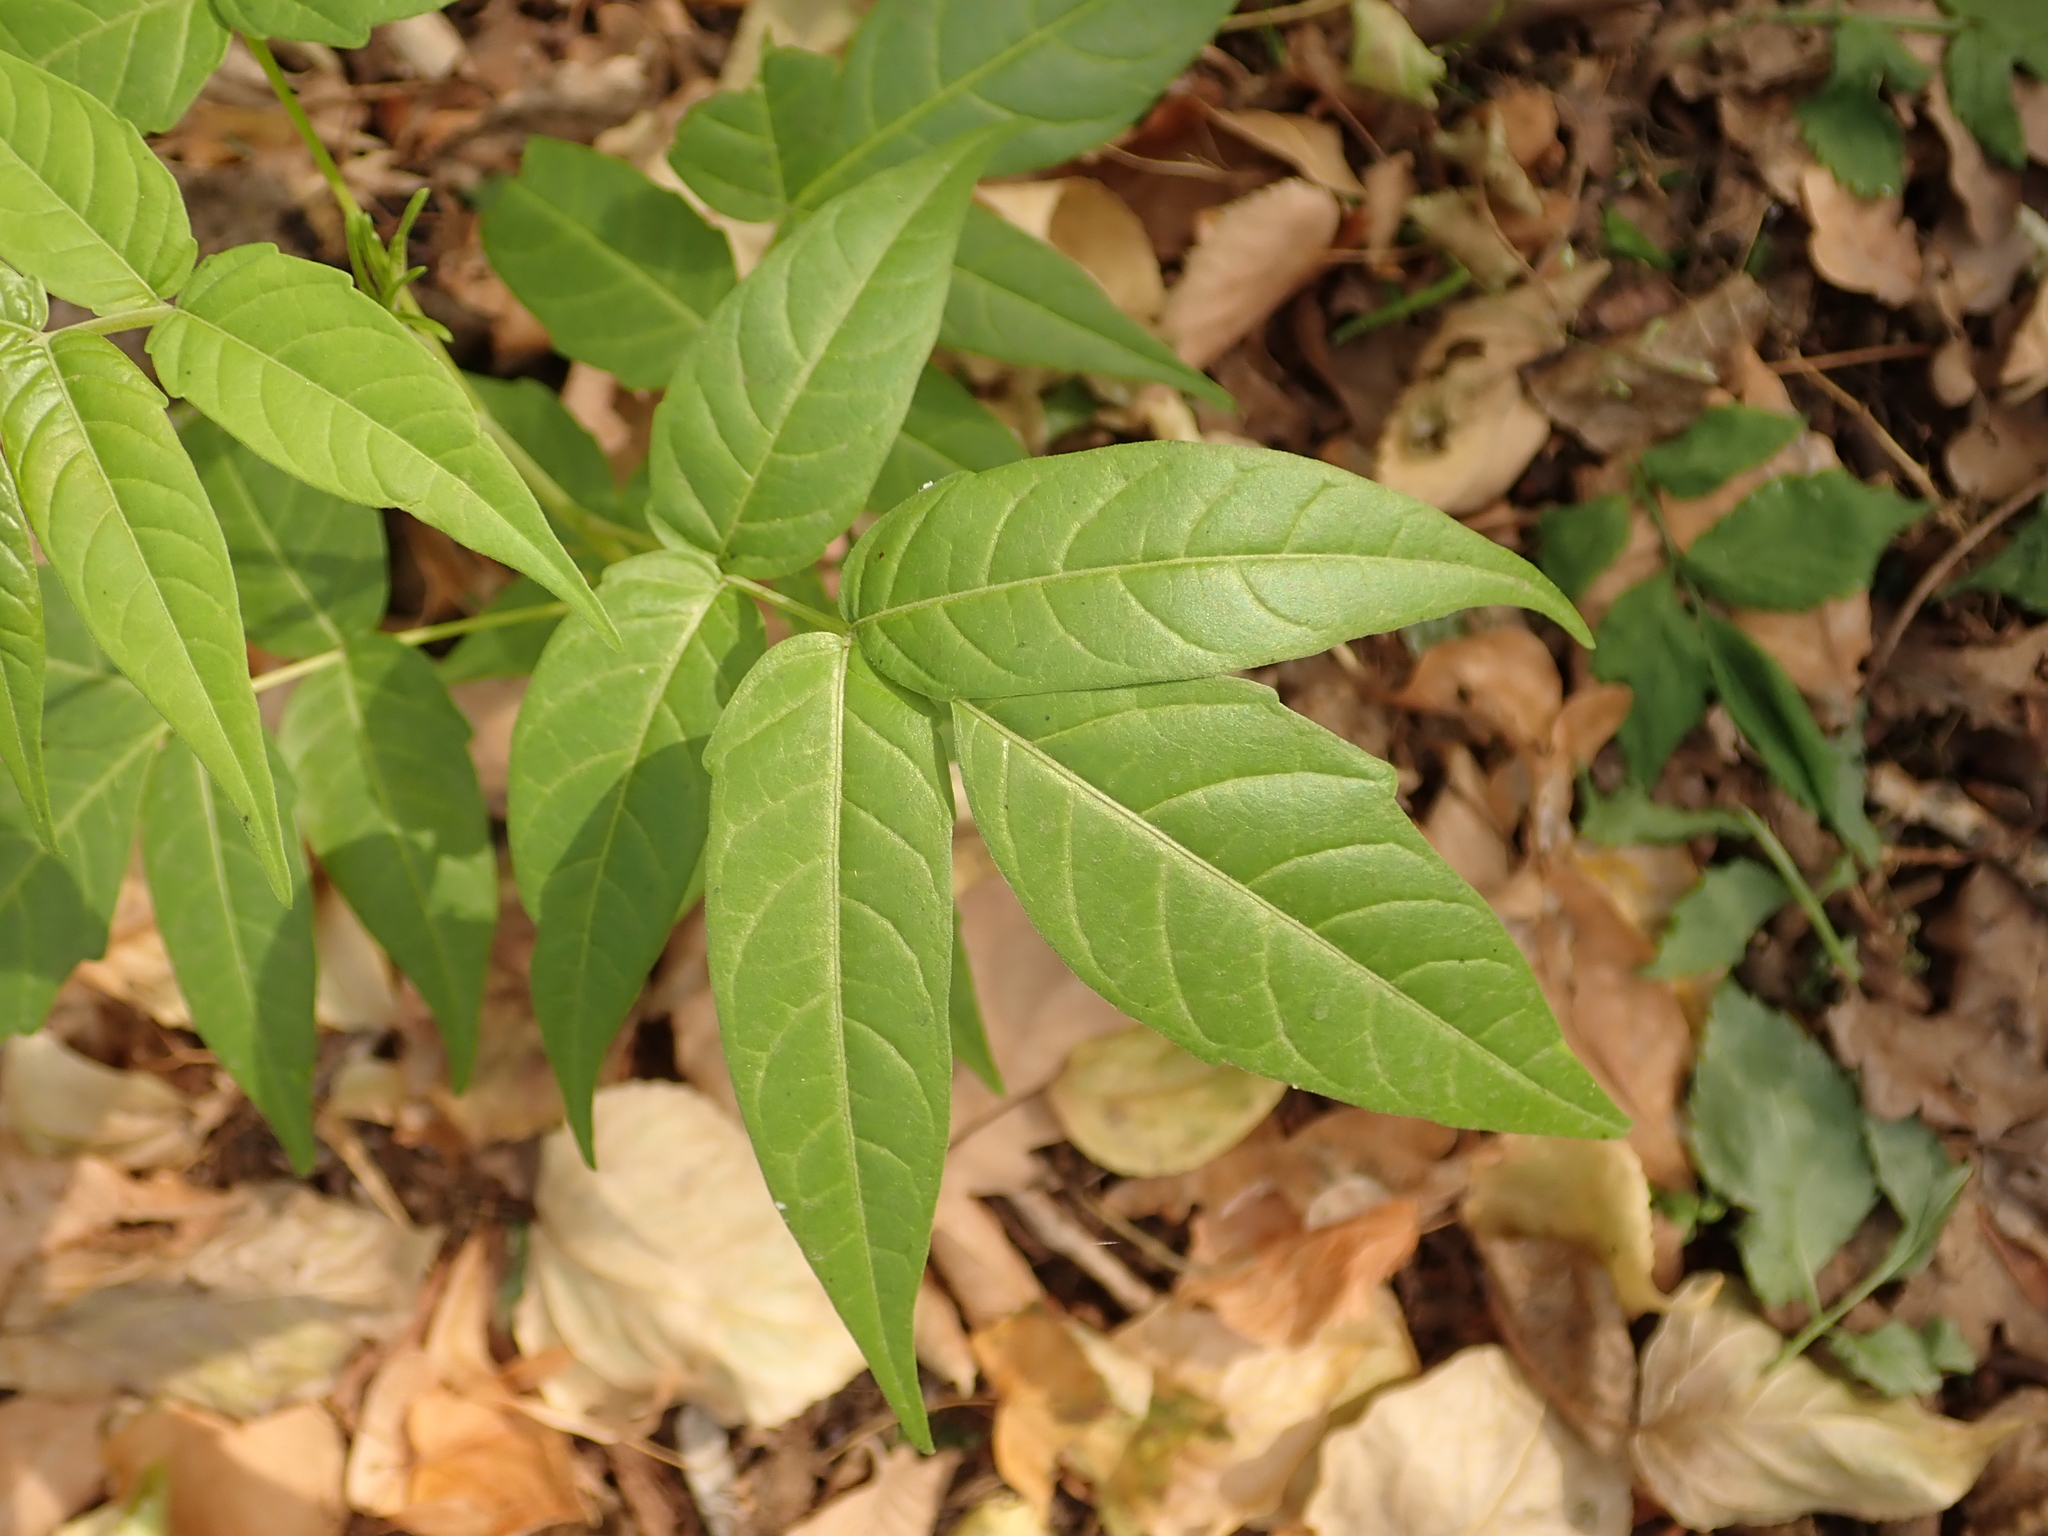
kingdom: Plantae
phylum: Tracheophyta
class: Magnoliopsida
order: Sapindales
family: Simaroubaceae
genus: Ailanthus
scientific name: Ailanthus altissima
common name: Tree-of-heaven
